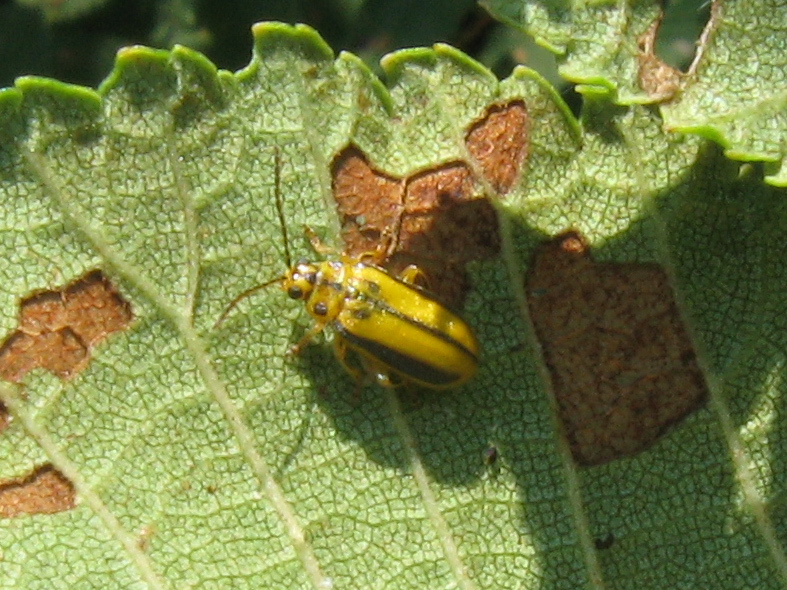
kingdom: Animalia
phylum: Arthropoda
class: Insecta
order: Coleoptera
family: Chrysomelidae
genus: Xanthogaleruca
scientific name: Xanthogaleruca luteola
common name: Elm leaf beetle
